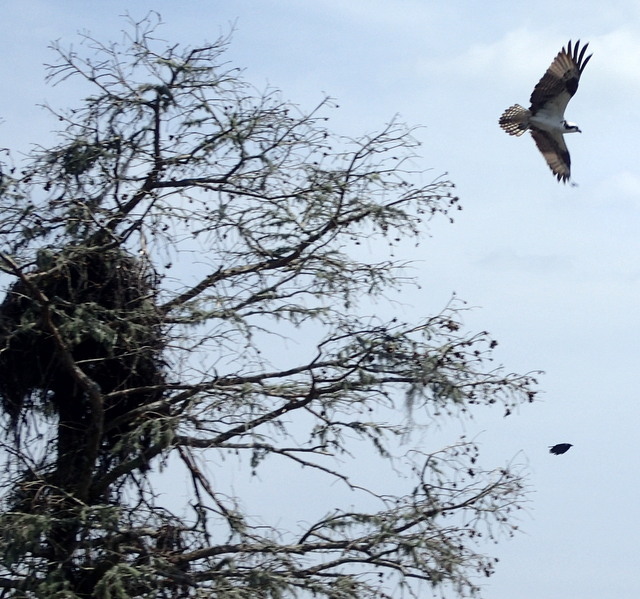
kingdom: Animalia
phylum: Chordata
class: Aves
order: Accipitriformes
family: Pandionidae
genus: Pandion
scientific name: Pandion haliaetus
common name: Osprey
